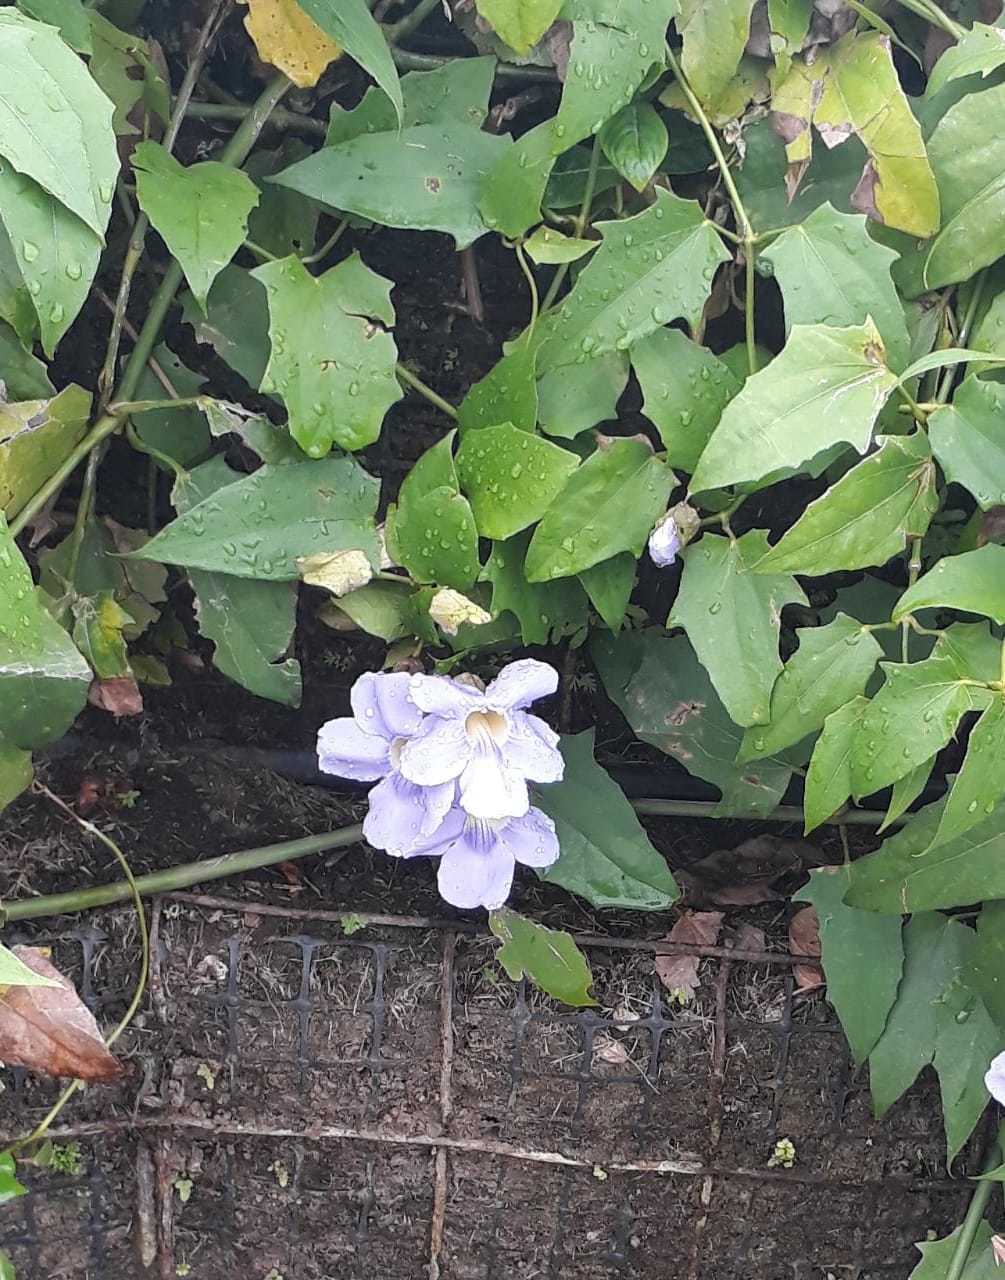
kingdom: Plantae
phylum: Tracheophyta
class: Magnoliopsida
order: Lamiales
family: Acanthaceae
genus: Thunbergia
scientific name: Thunbergia grandiflora
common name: Bengal trumpet
